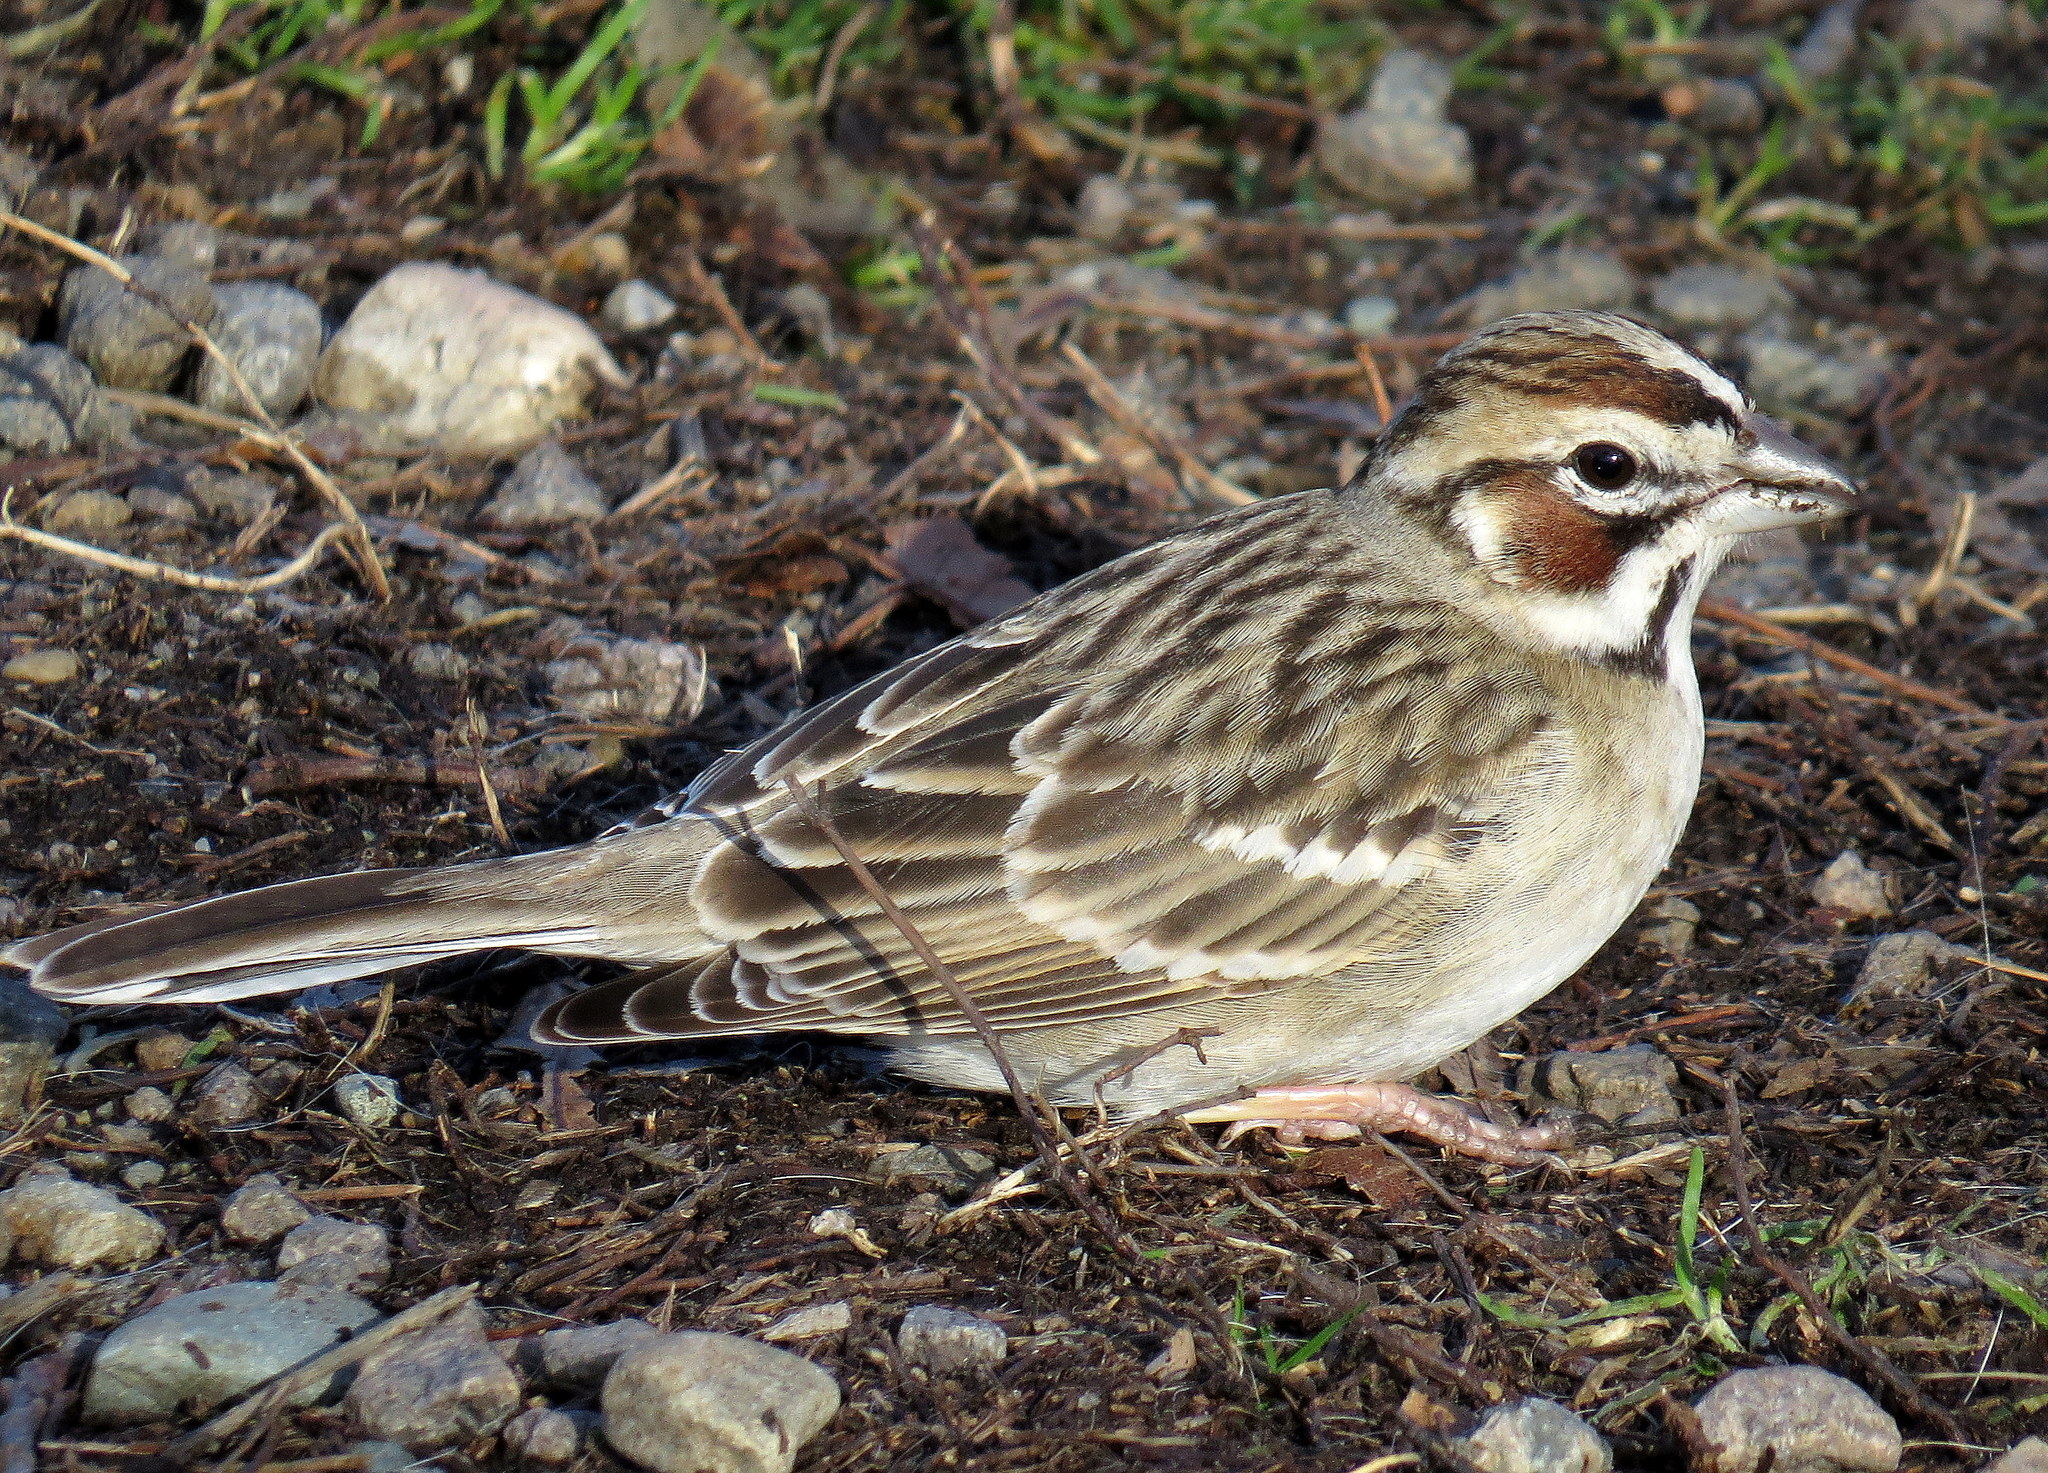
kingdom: Animalia
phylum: Chordata
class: Aves
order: Passeriformes
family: Passerellidae
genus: Chondestes
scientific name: Chondestes grammacus
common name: Lark sparrow
